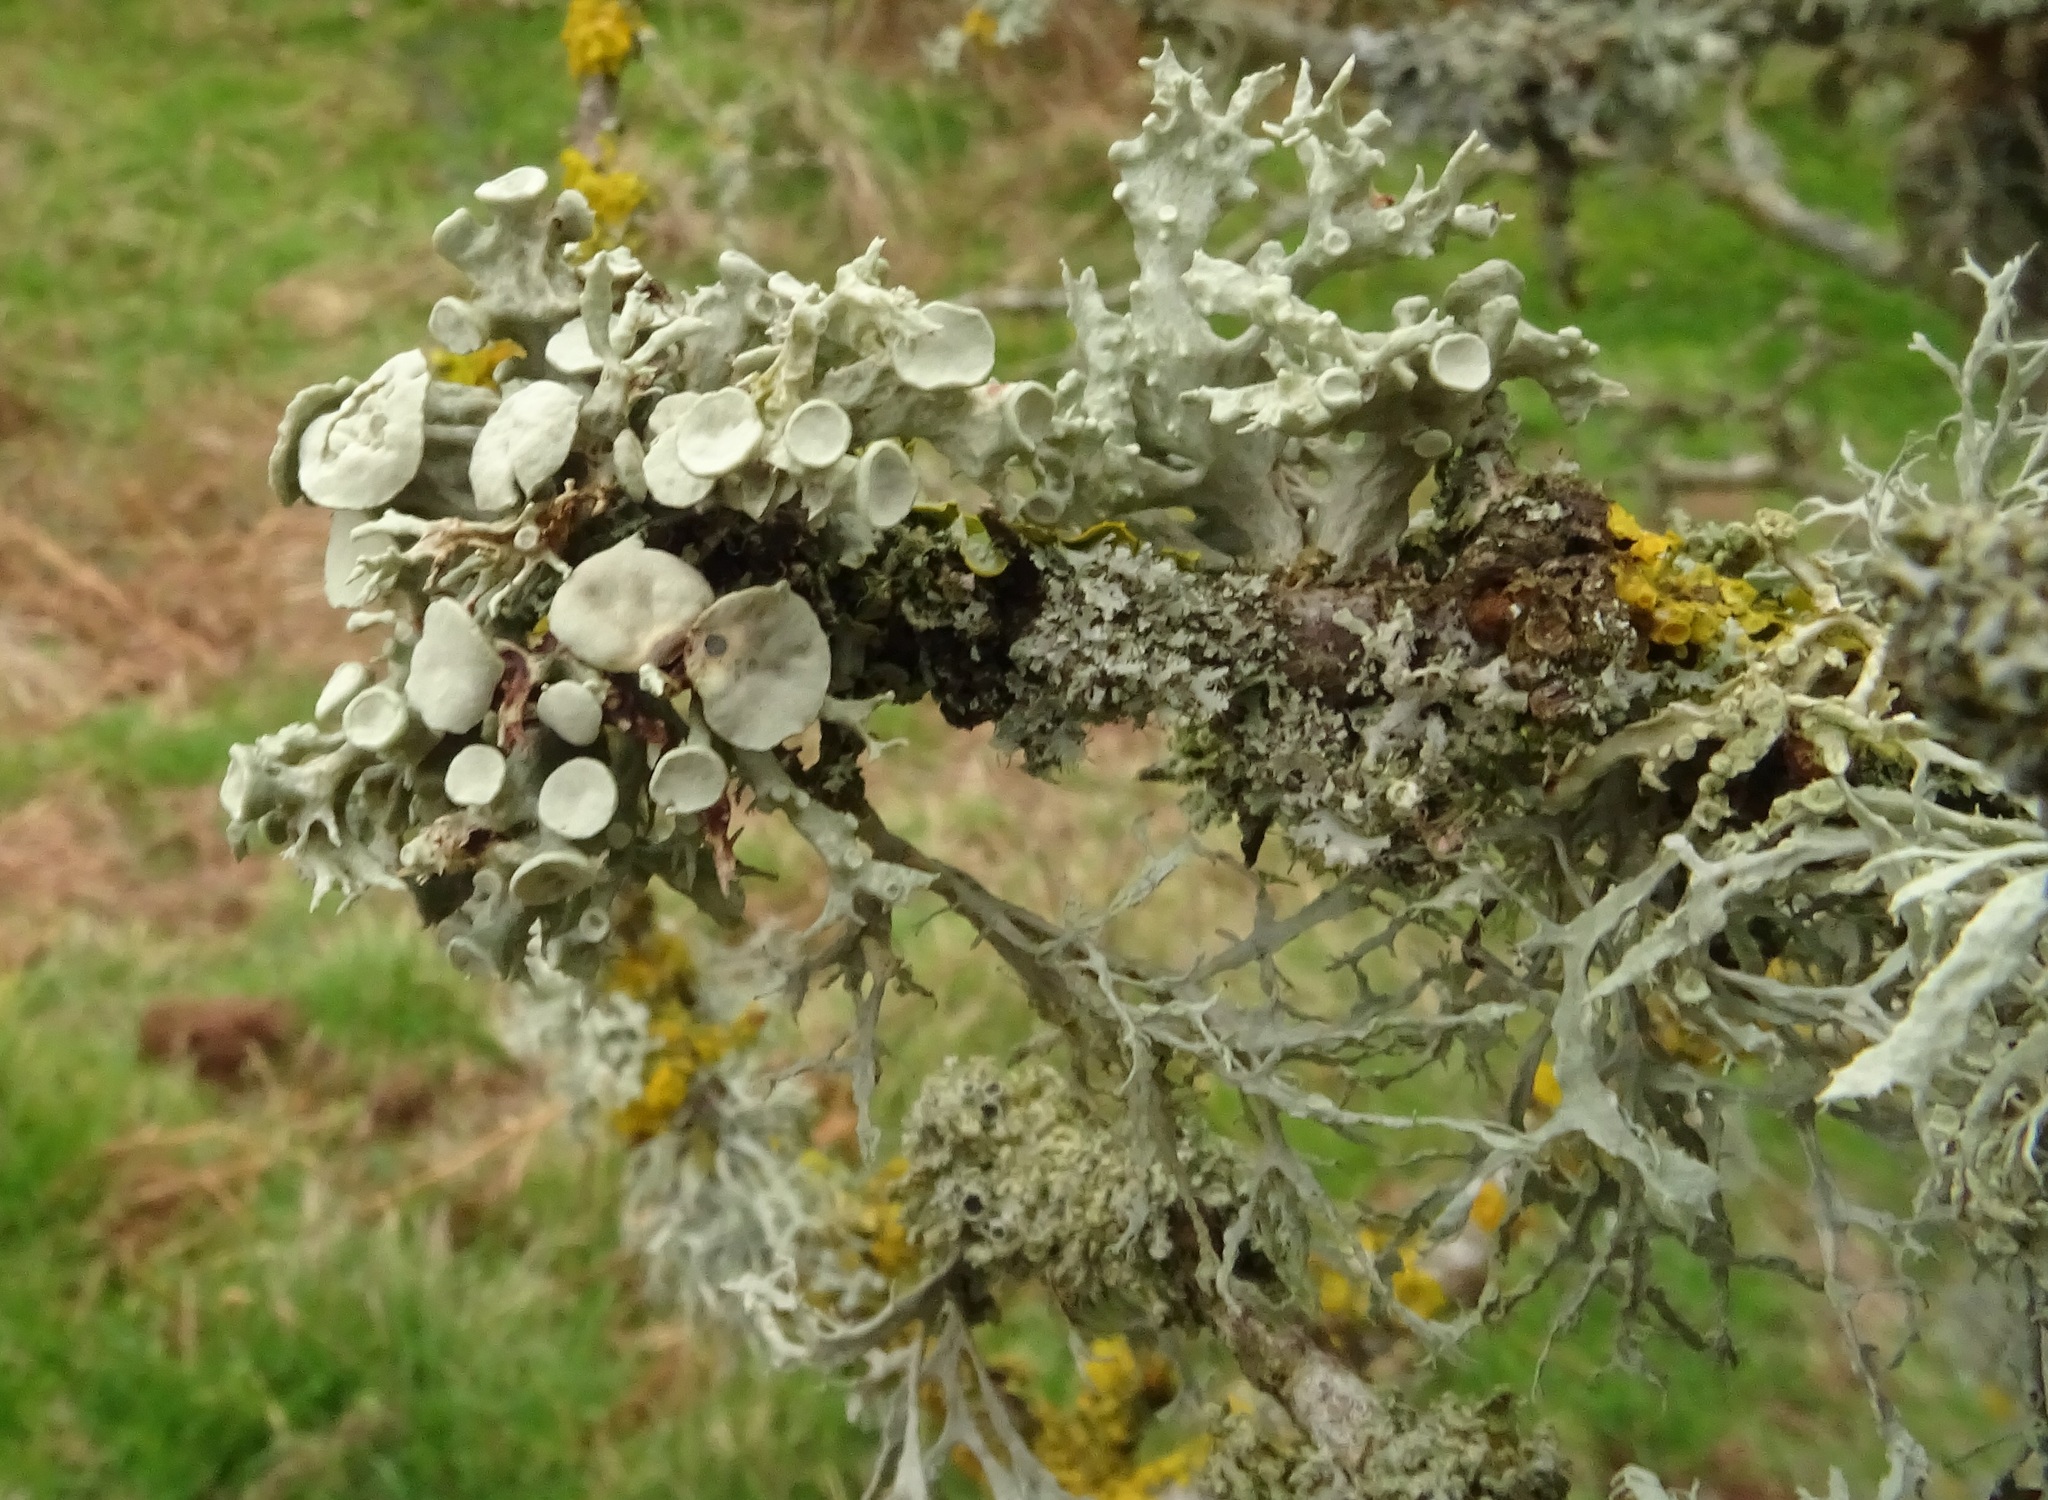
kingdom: Fungi
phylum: Ascomycota
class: Lecanoromycetes
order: Lecanorales
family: Ramalinaceae
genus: Ramalina
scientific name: Ramalina fastigiata
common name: Dotted ribbon lichen
